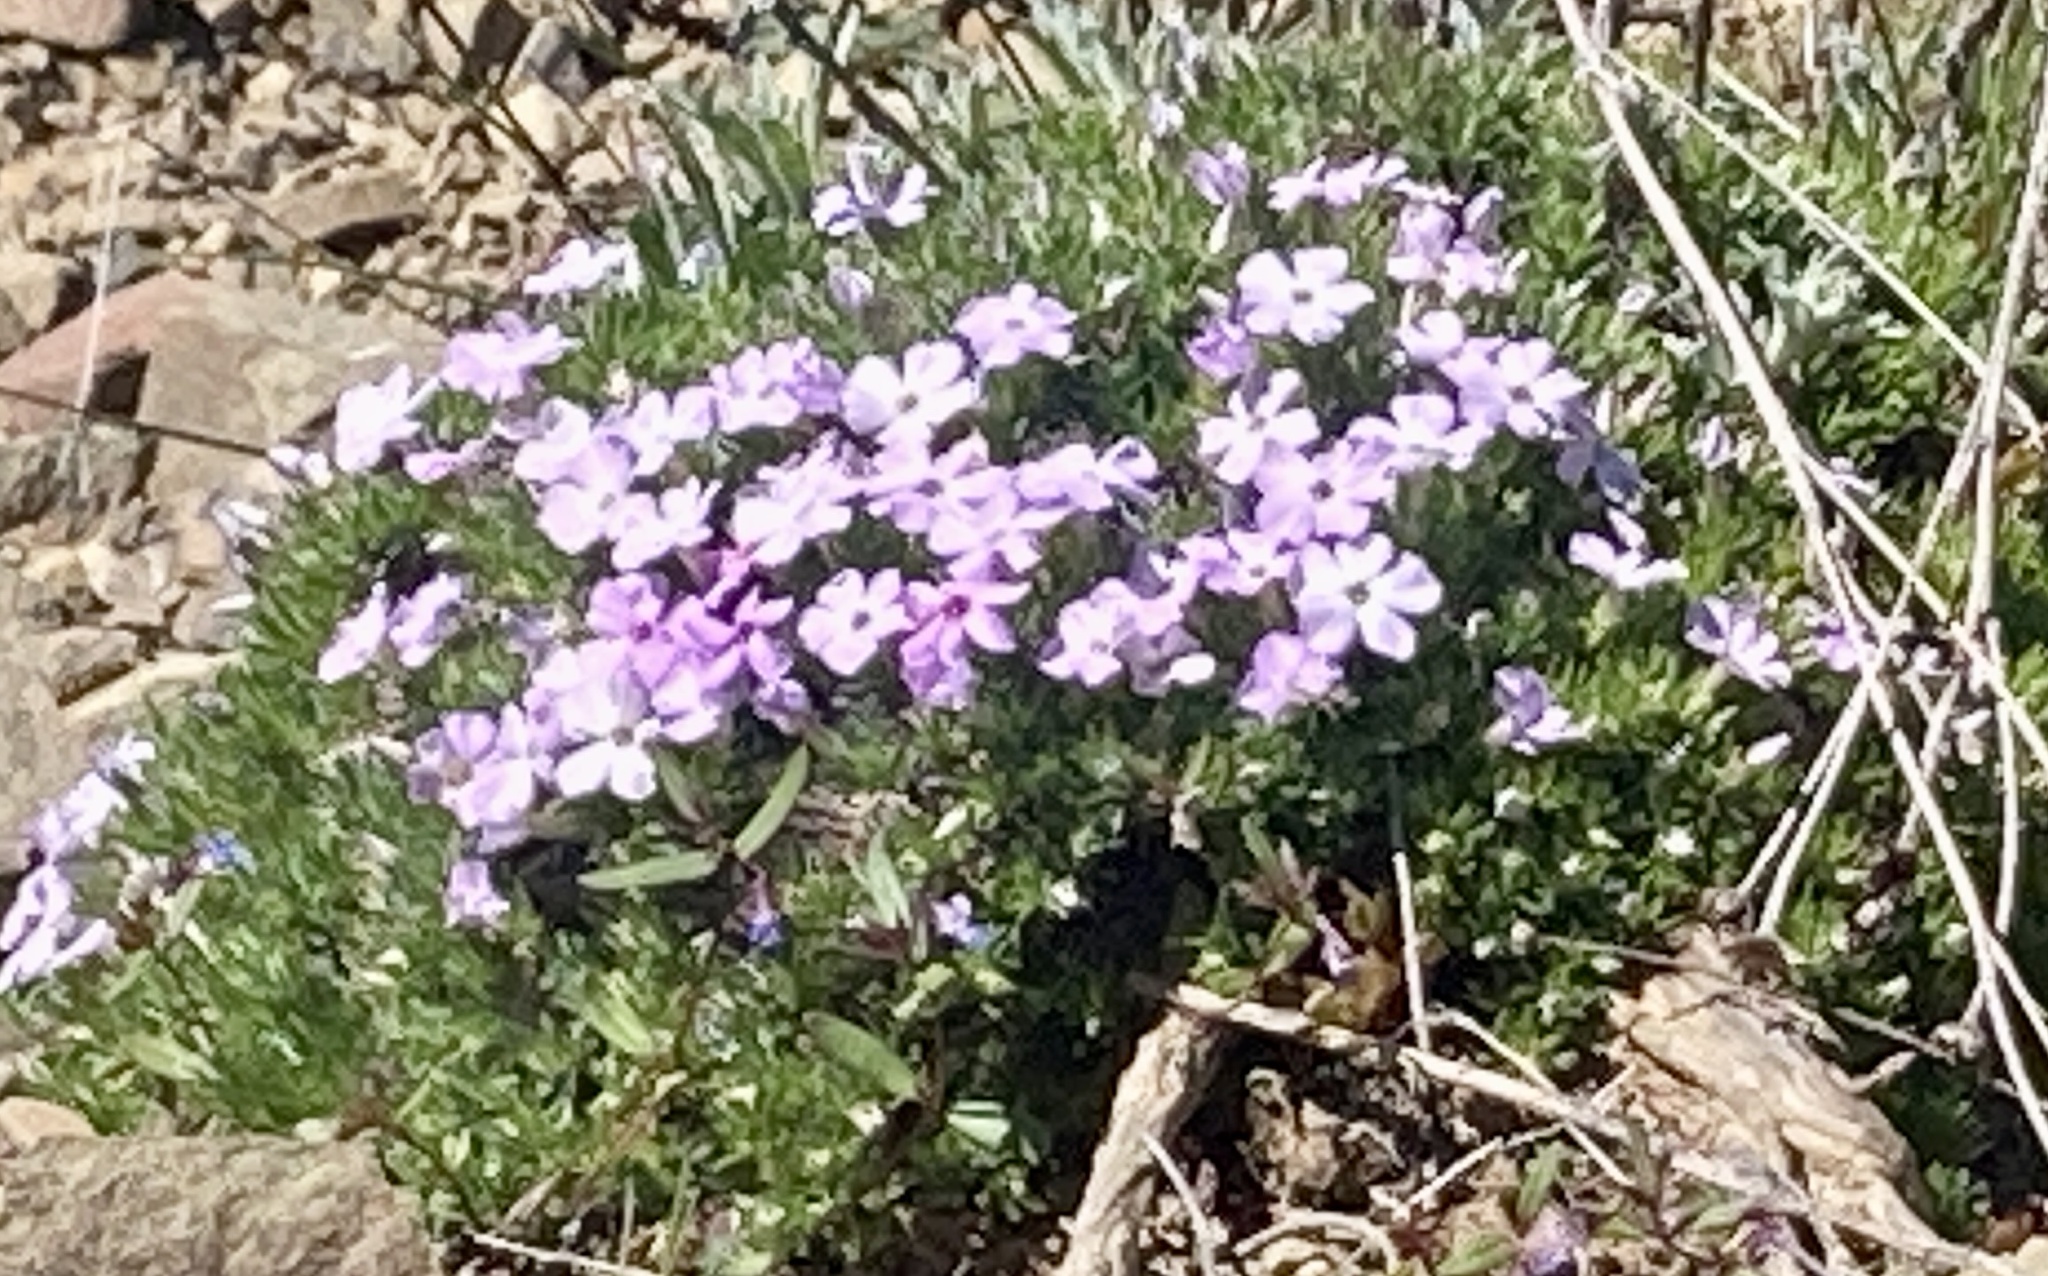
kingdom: Plantae
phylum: Tracheophyta
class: Magnoliopsida
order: Ericales
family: Polemoniaceae
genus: Phlox
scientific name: Phlox diffusa
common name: Mat phlox
